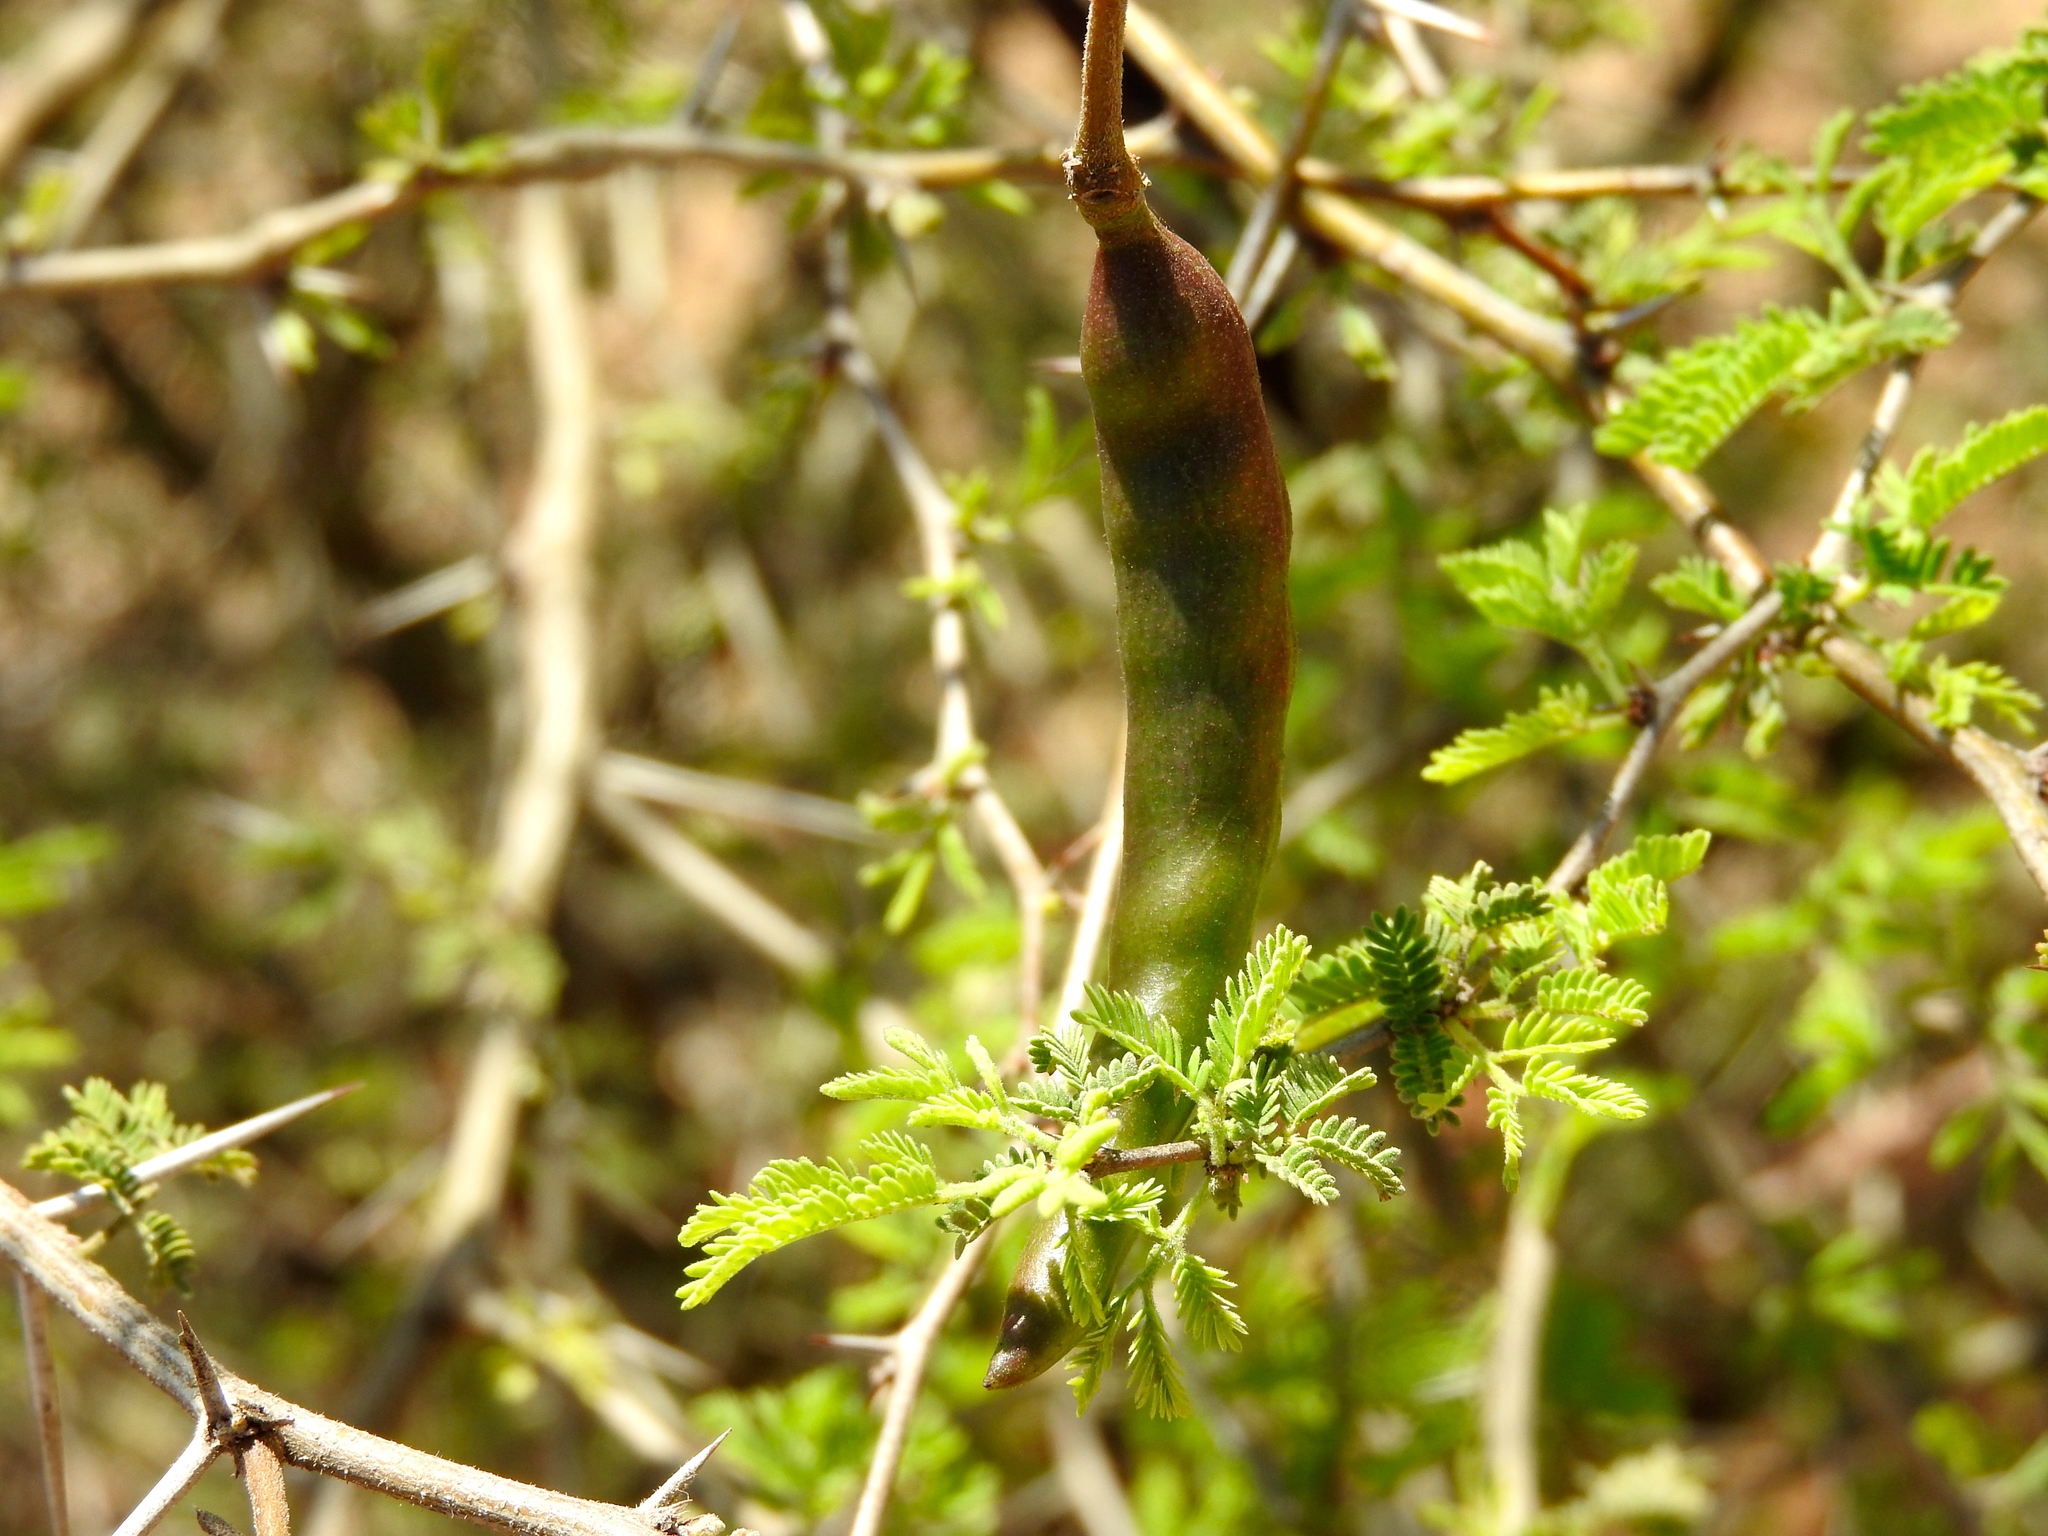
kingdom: Plantae
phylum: Tracheophyta
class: Magnoliopsida
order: Fabales
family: Fabaceae
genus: Vachellia
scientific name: Vachellia farnesiana
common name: Sweet acacia
